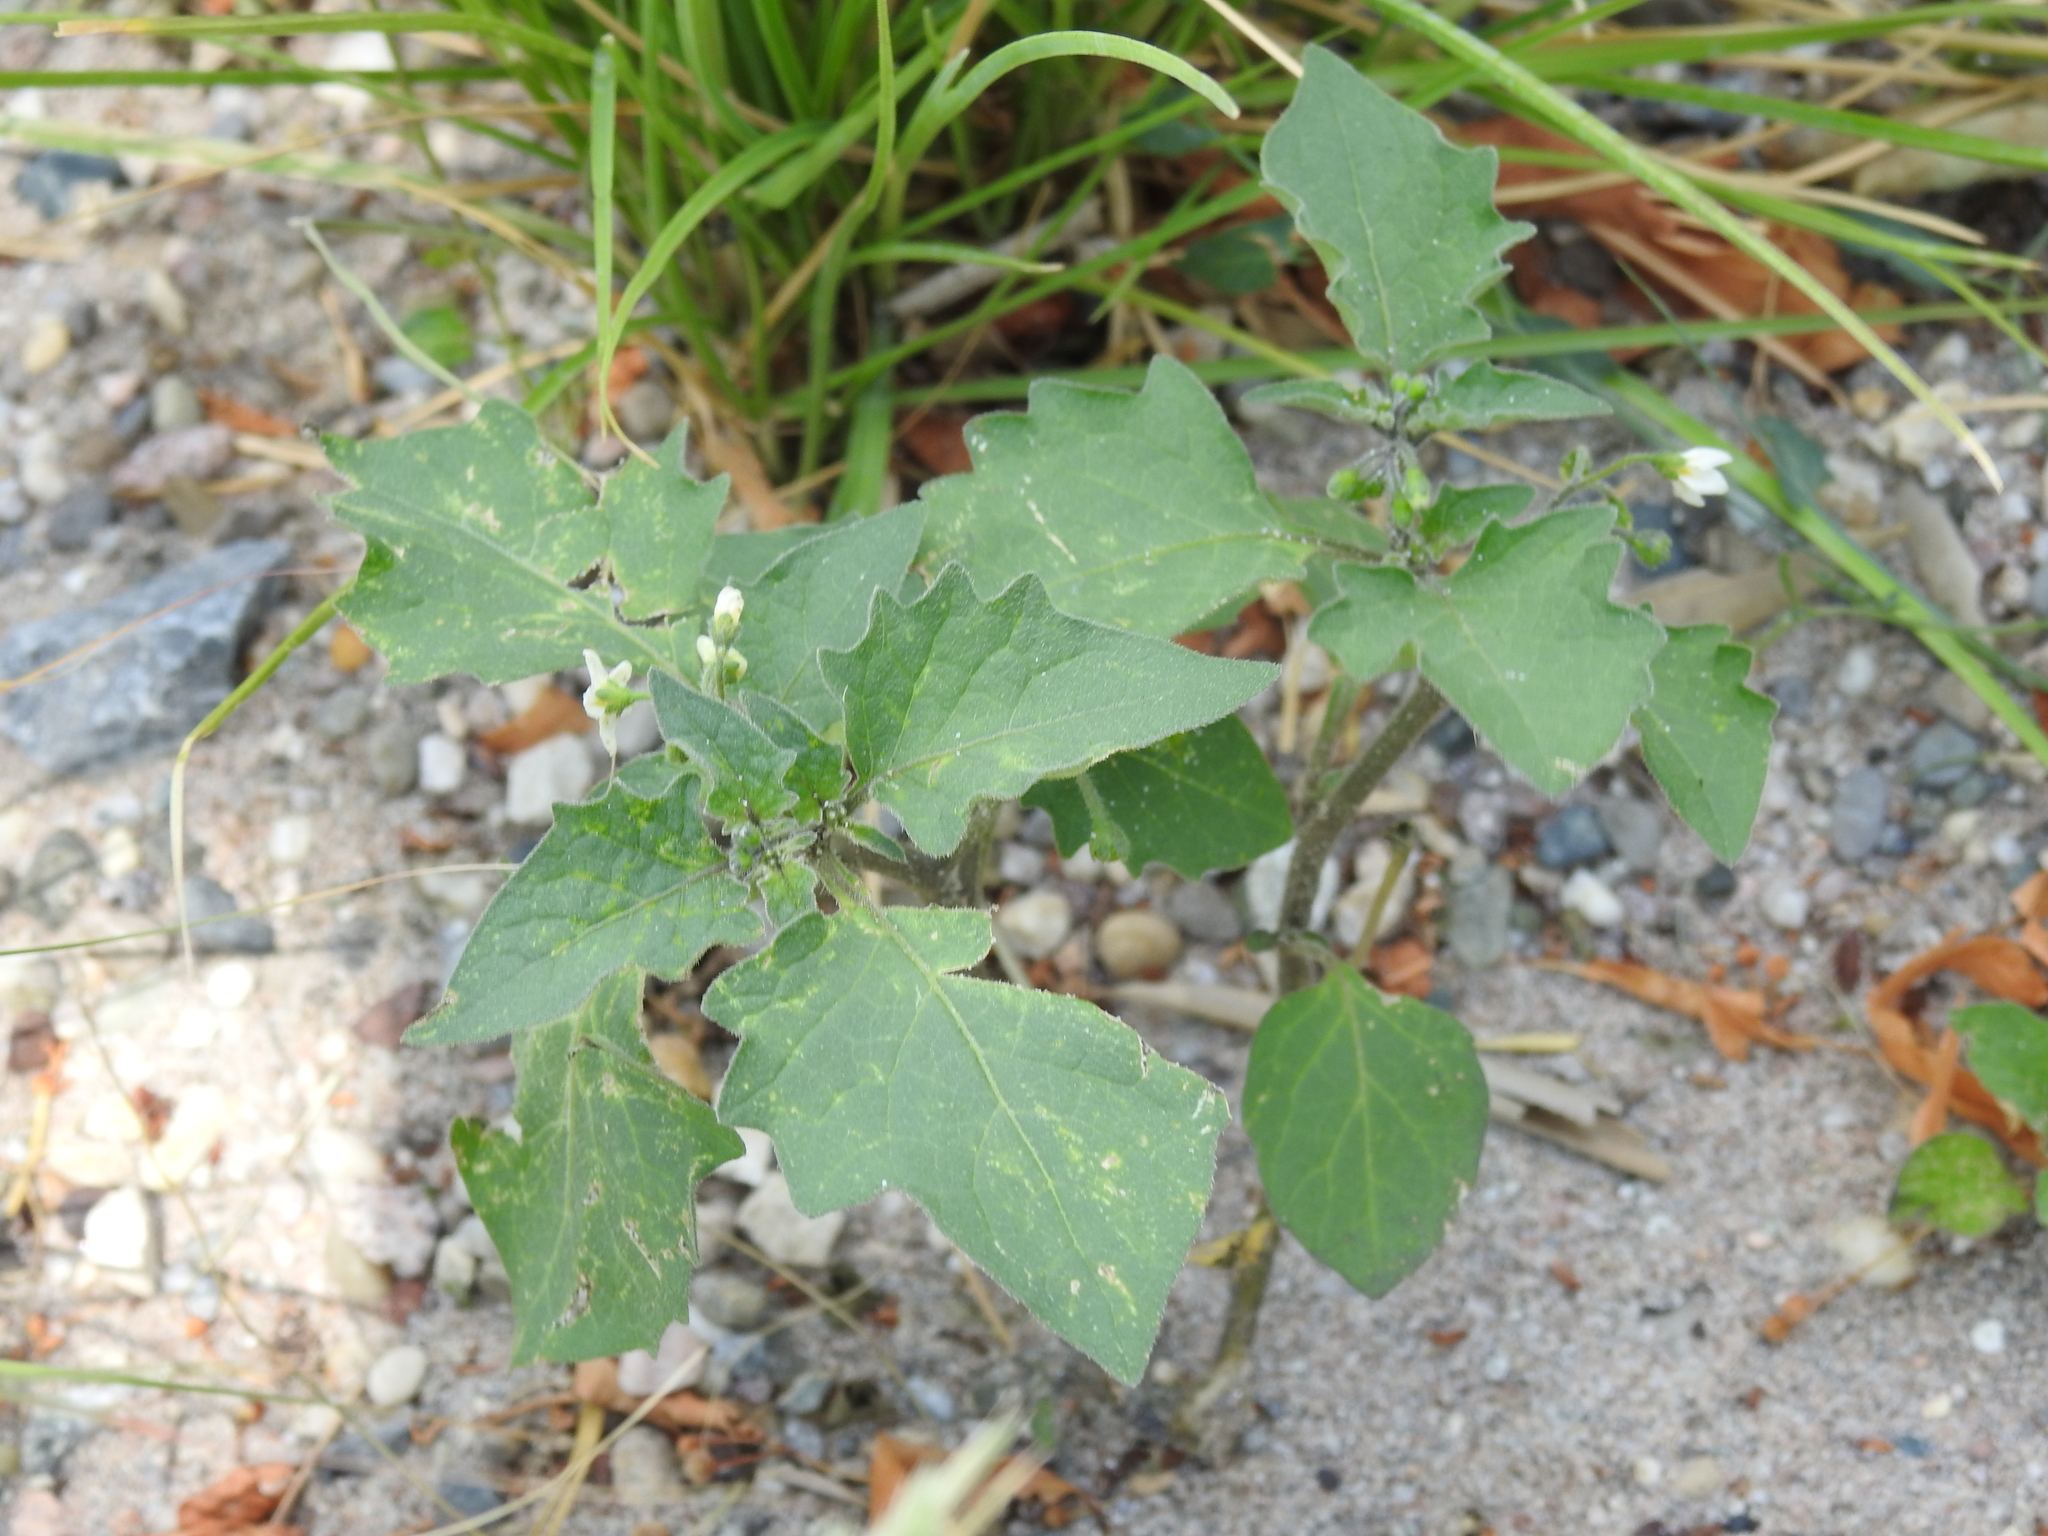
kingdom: Plantae
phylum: Tracheophyta
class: Magnoliopsida
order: Solanales
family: Solanaceae
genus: Solanum
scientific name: Solanum nigrum
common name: Black nightshade
